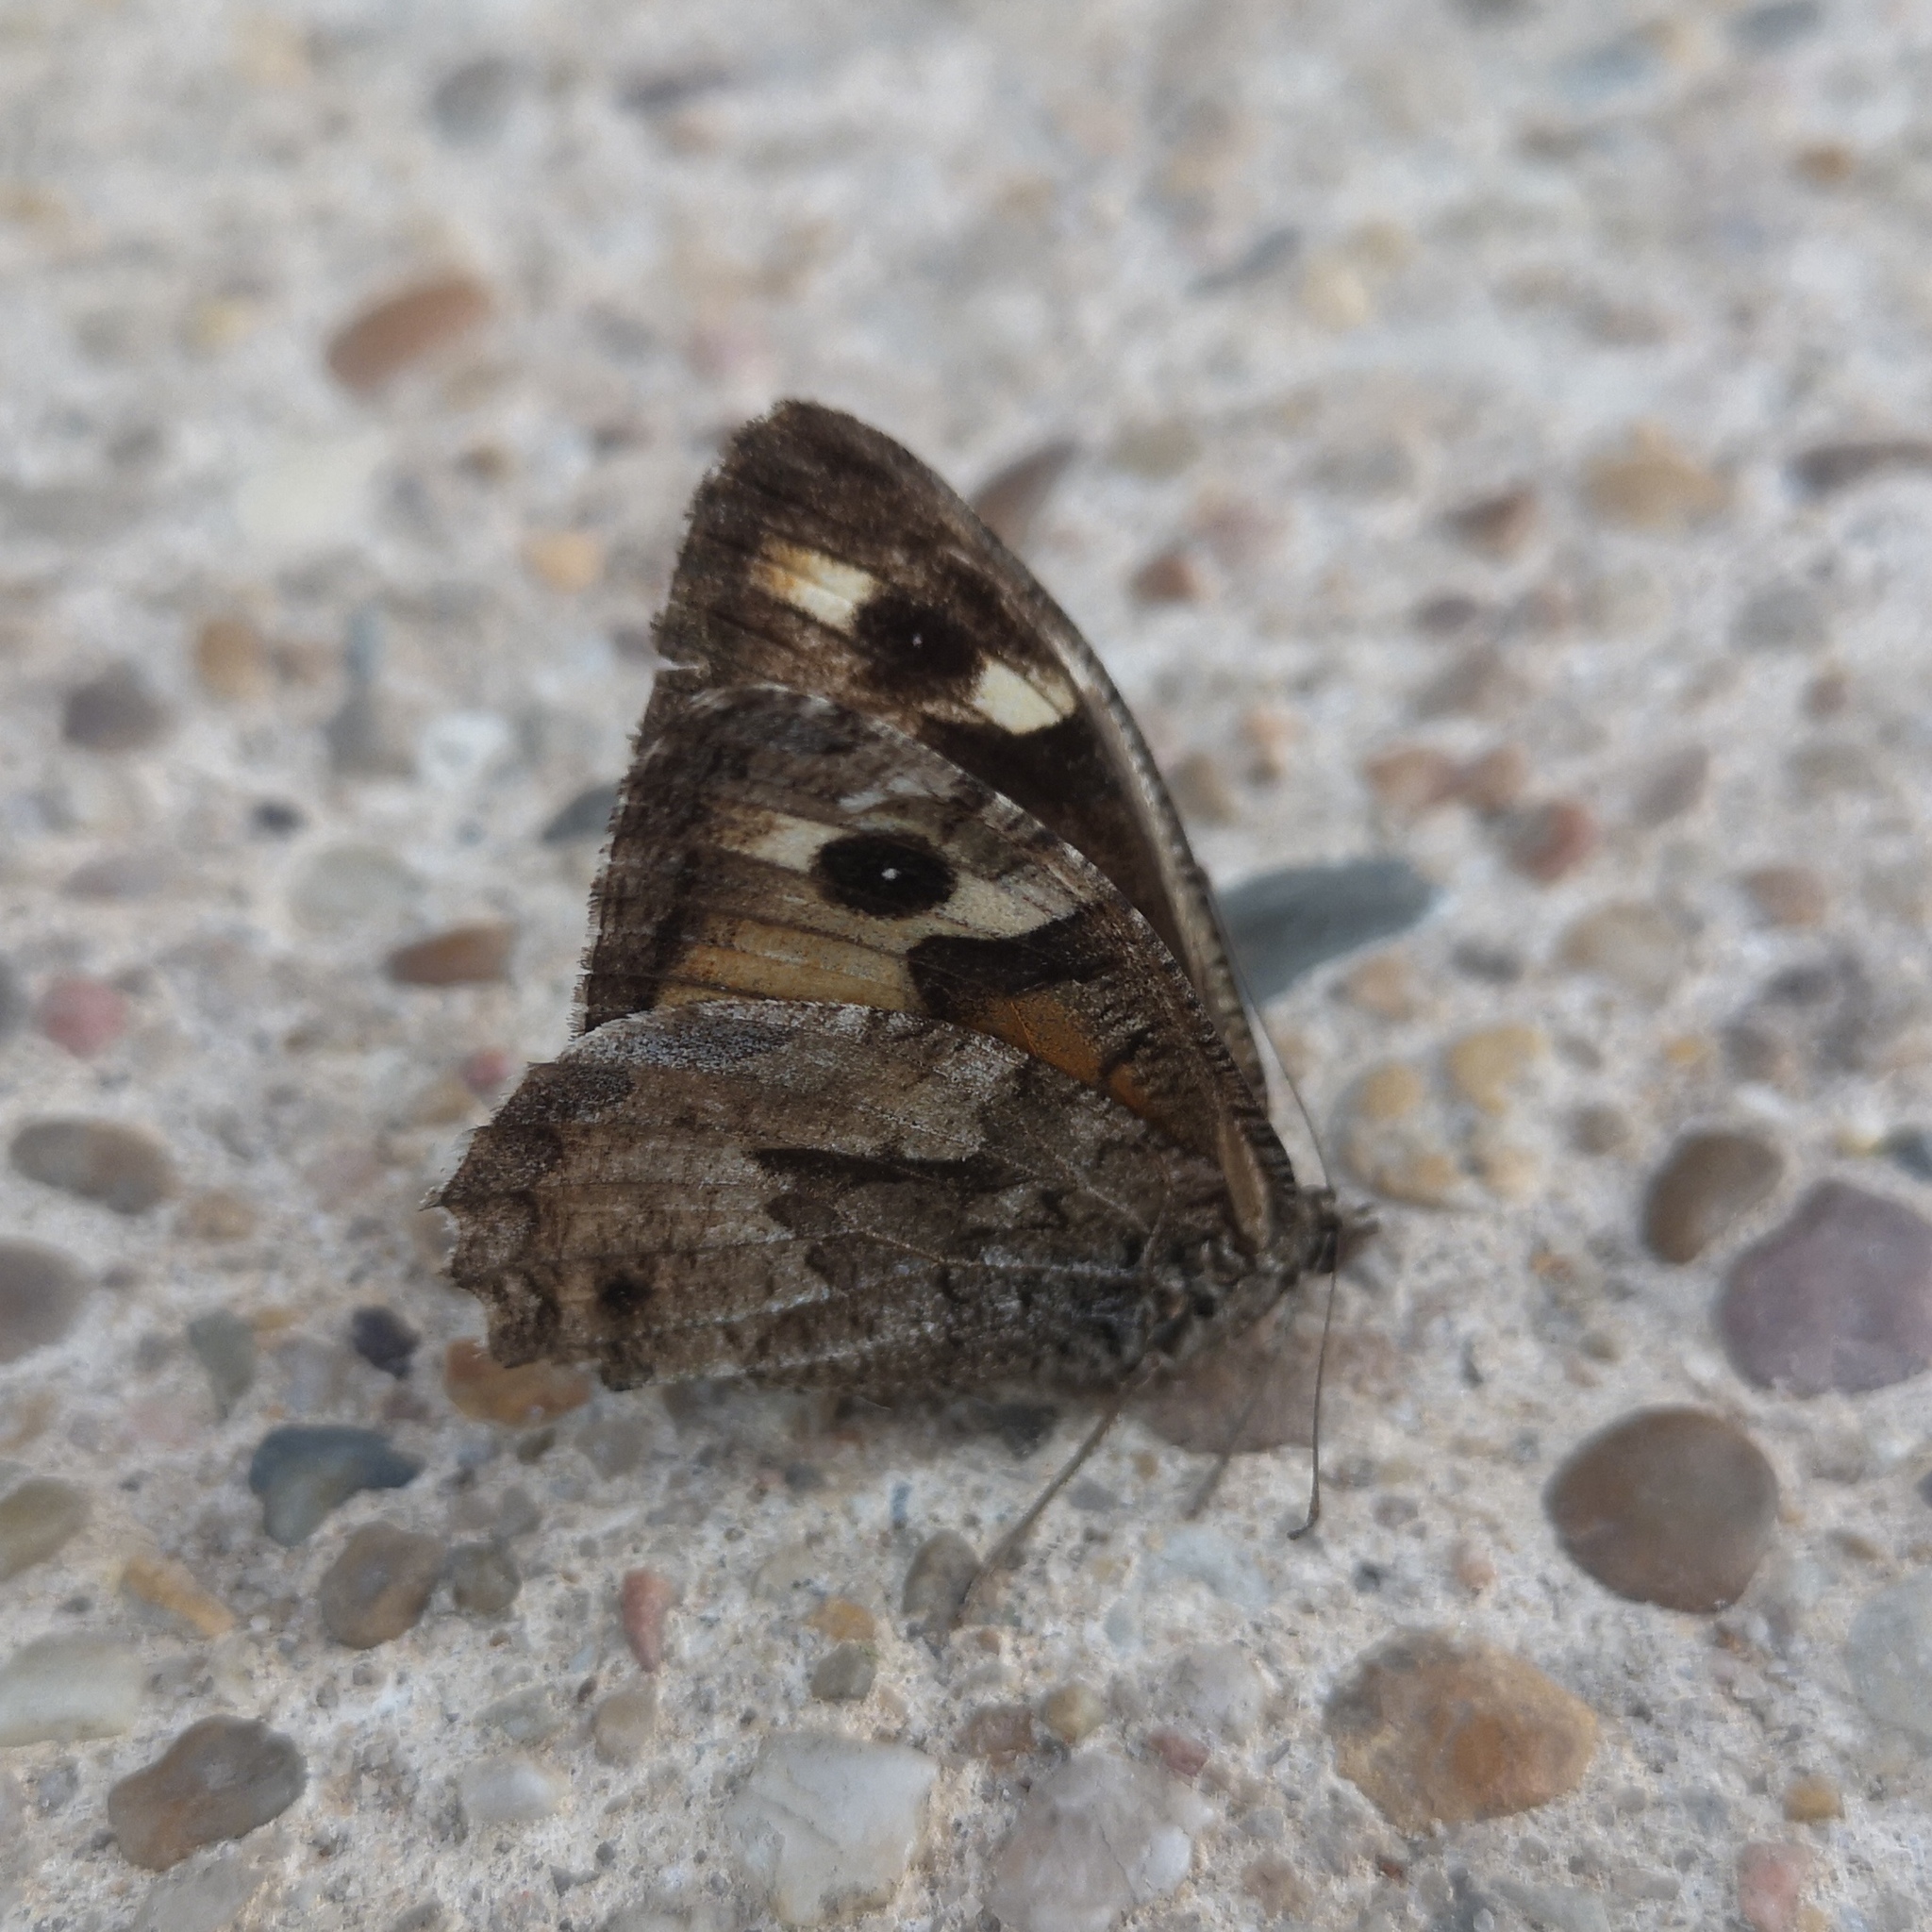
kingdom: Animalia
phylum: Arthropoda
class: Insecta
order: Lepidoptera
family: Nymphalidae
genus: Hipparchia
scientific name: Hipparchia semele
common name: Grayling
